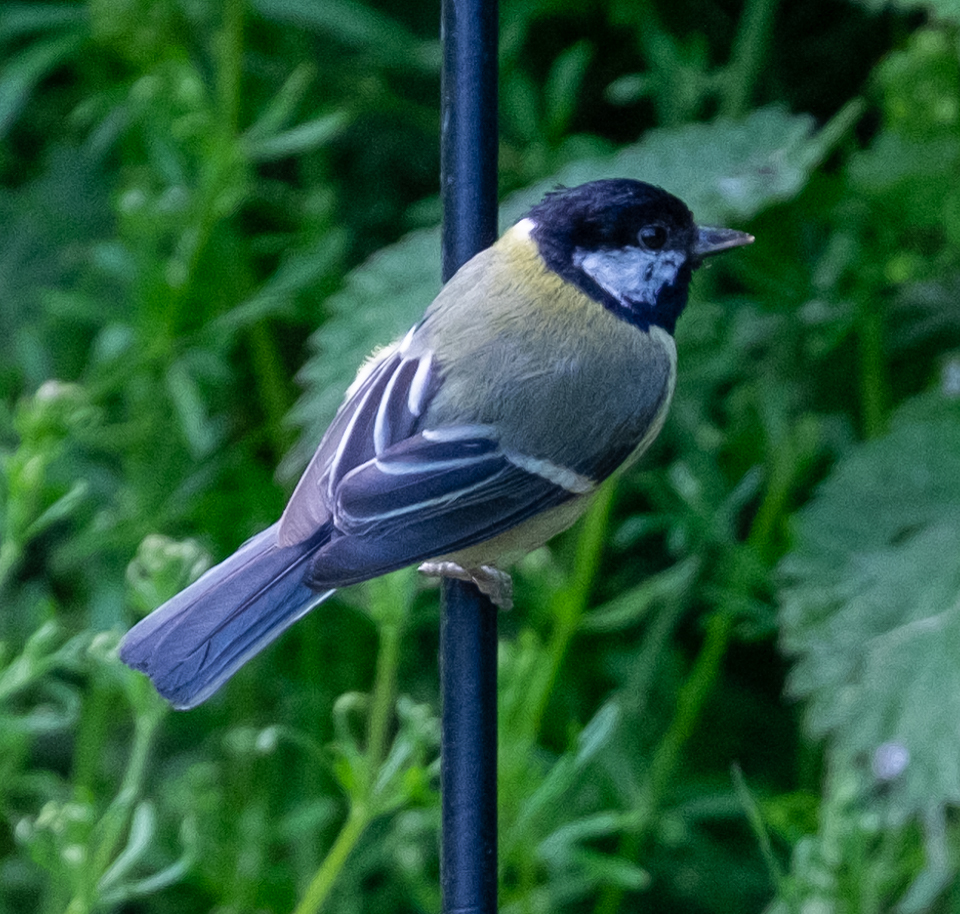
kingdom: Animalia
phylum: Chordata
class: Aves
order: Passeriformes
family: Paridae
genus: Parus
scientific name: Parus major
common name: Great tit
